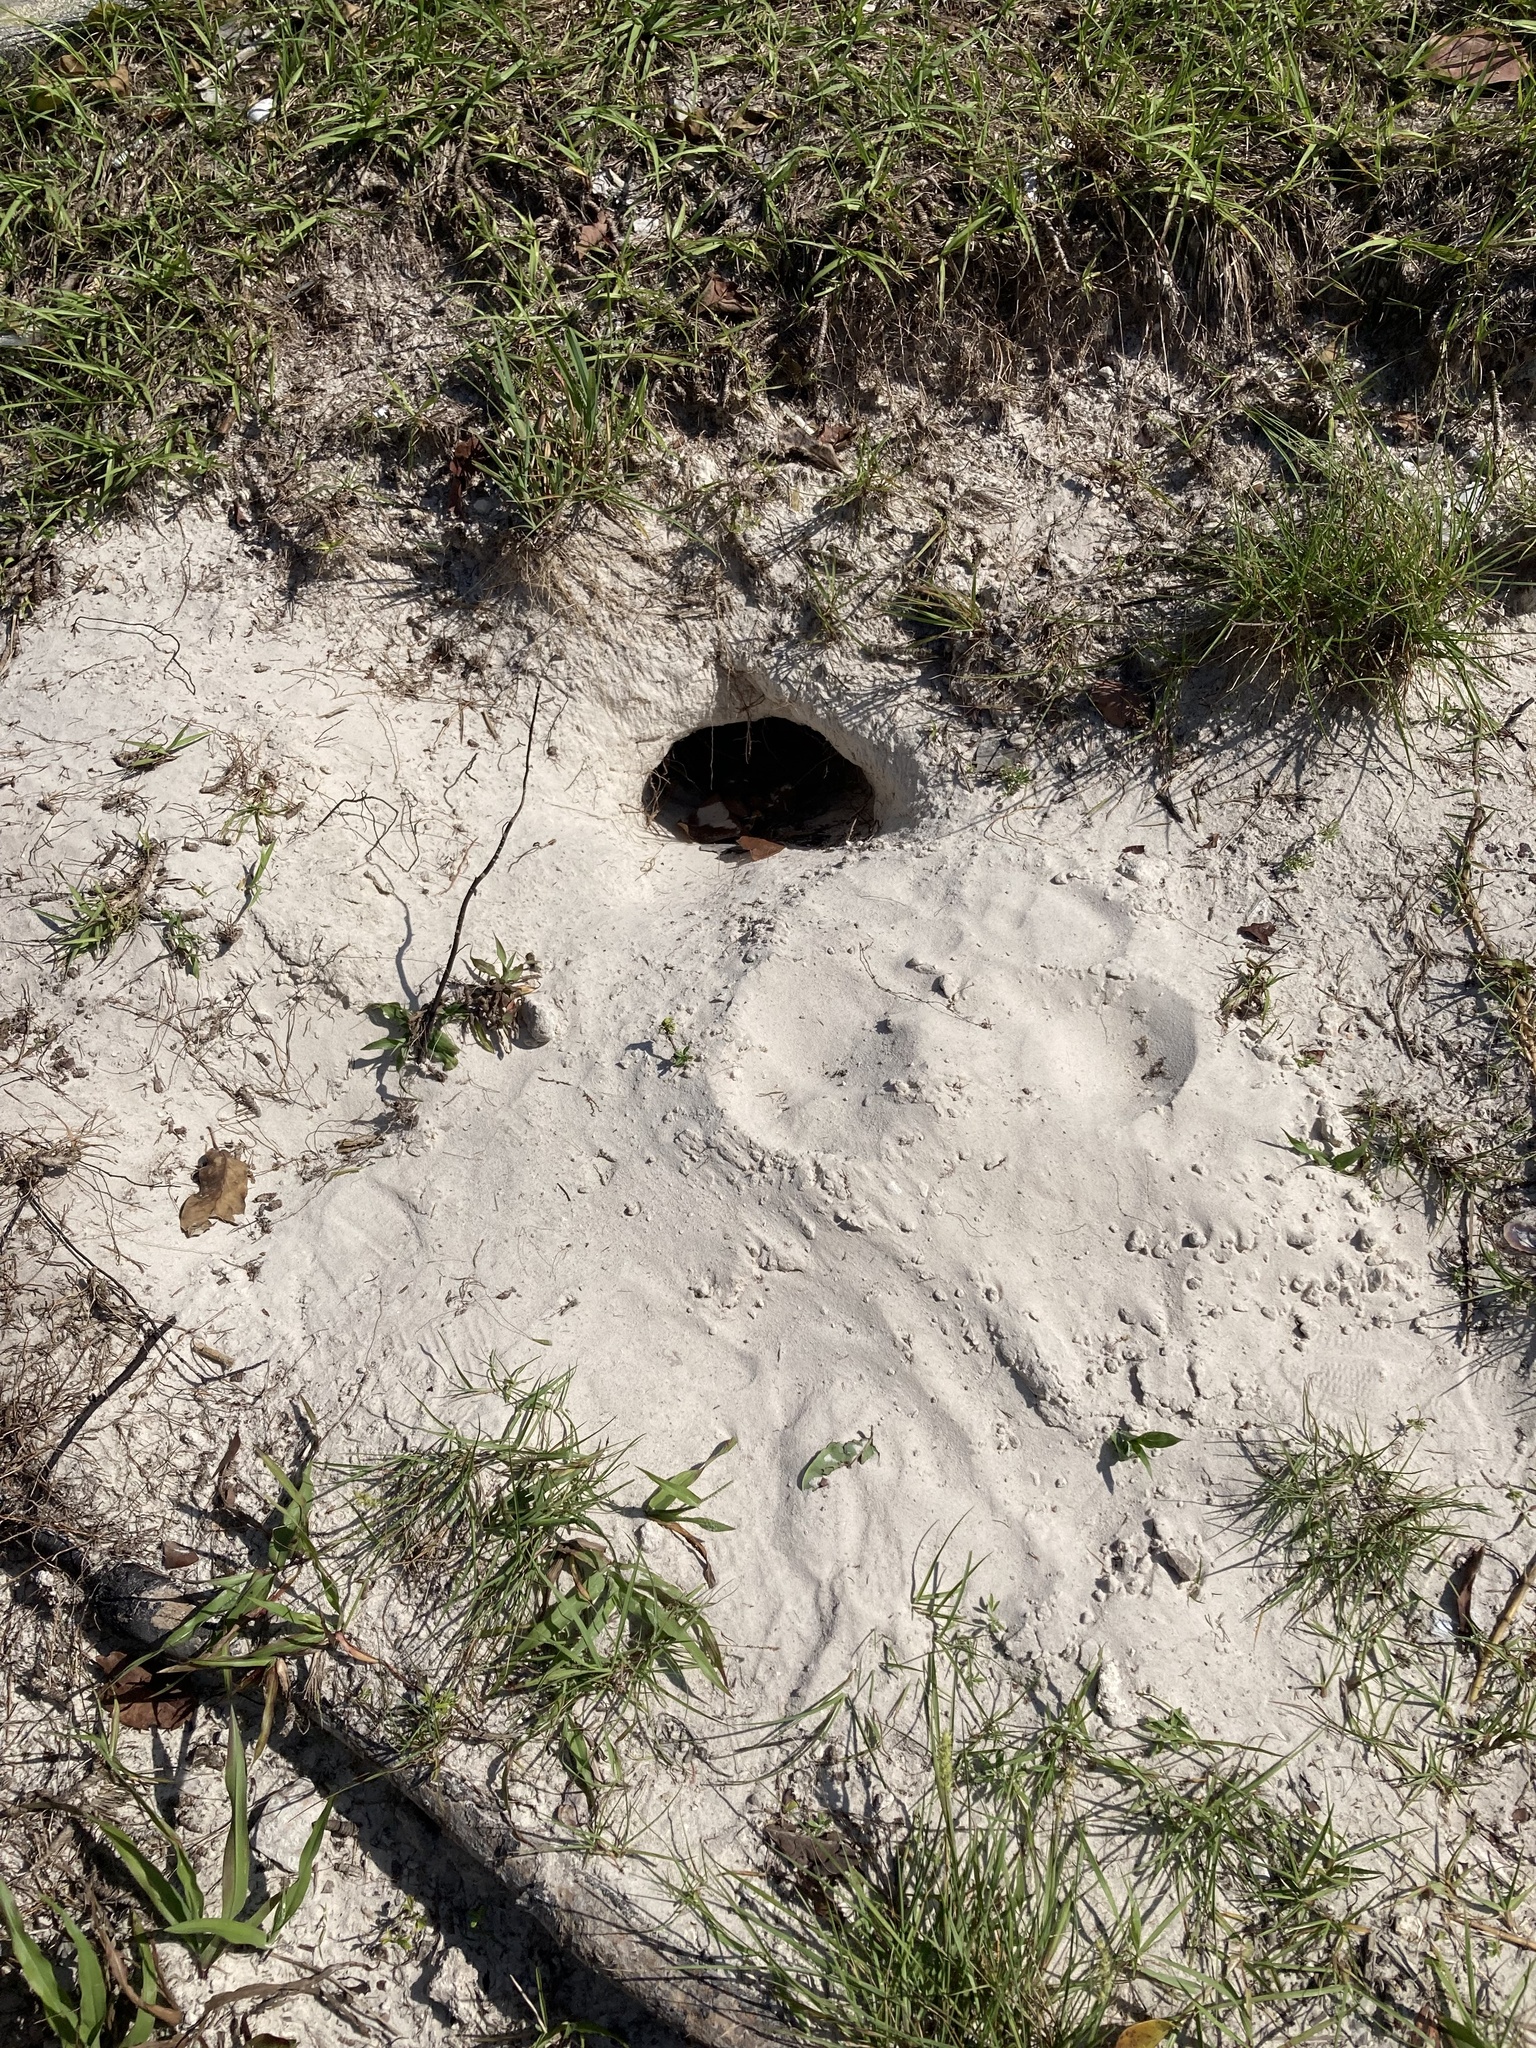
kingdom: Animalia
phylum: Chordata
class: Testudines
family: Testudinidae
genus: Gopherus
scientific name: Gopherus polyphemus
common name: Florida gopher tortoise
